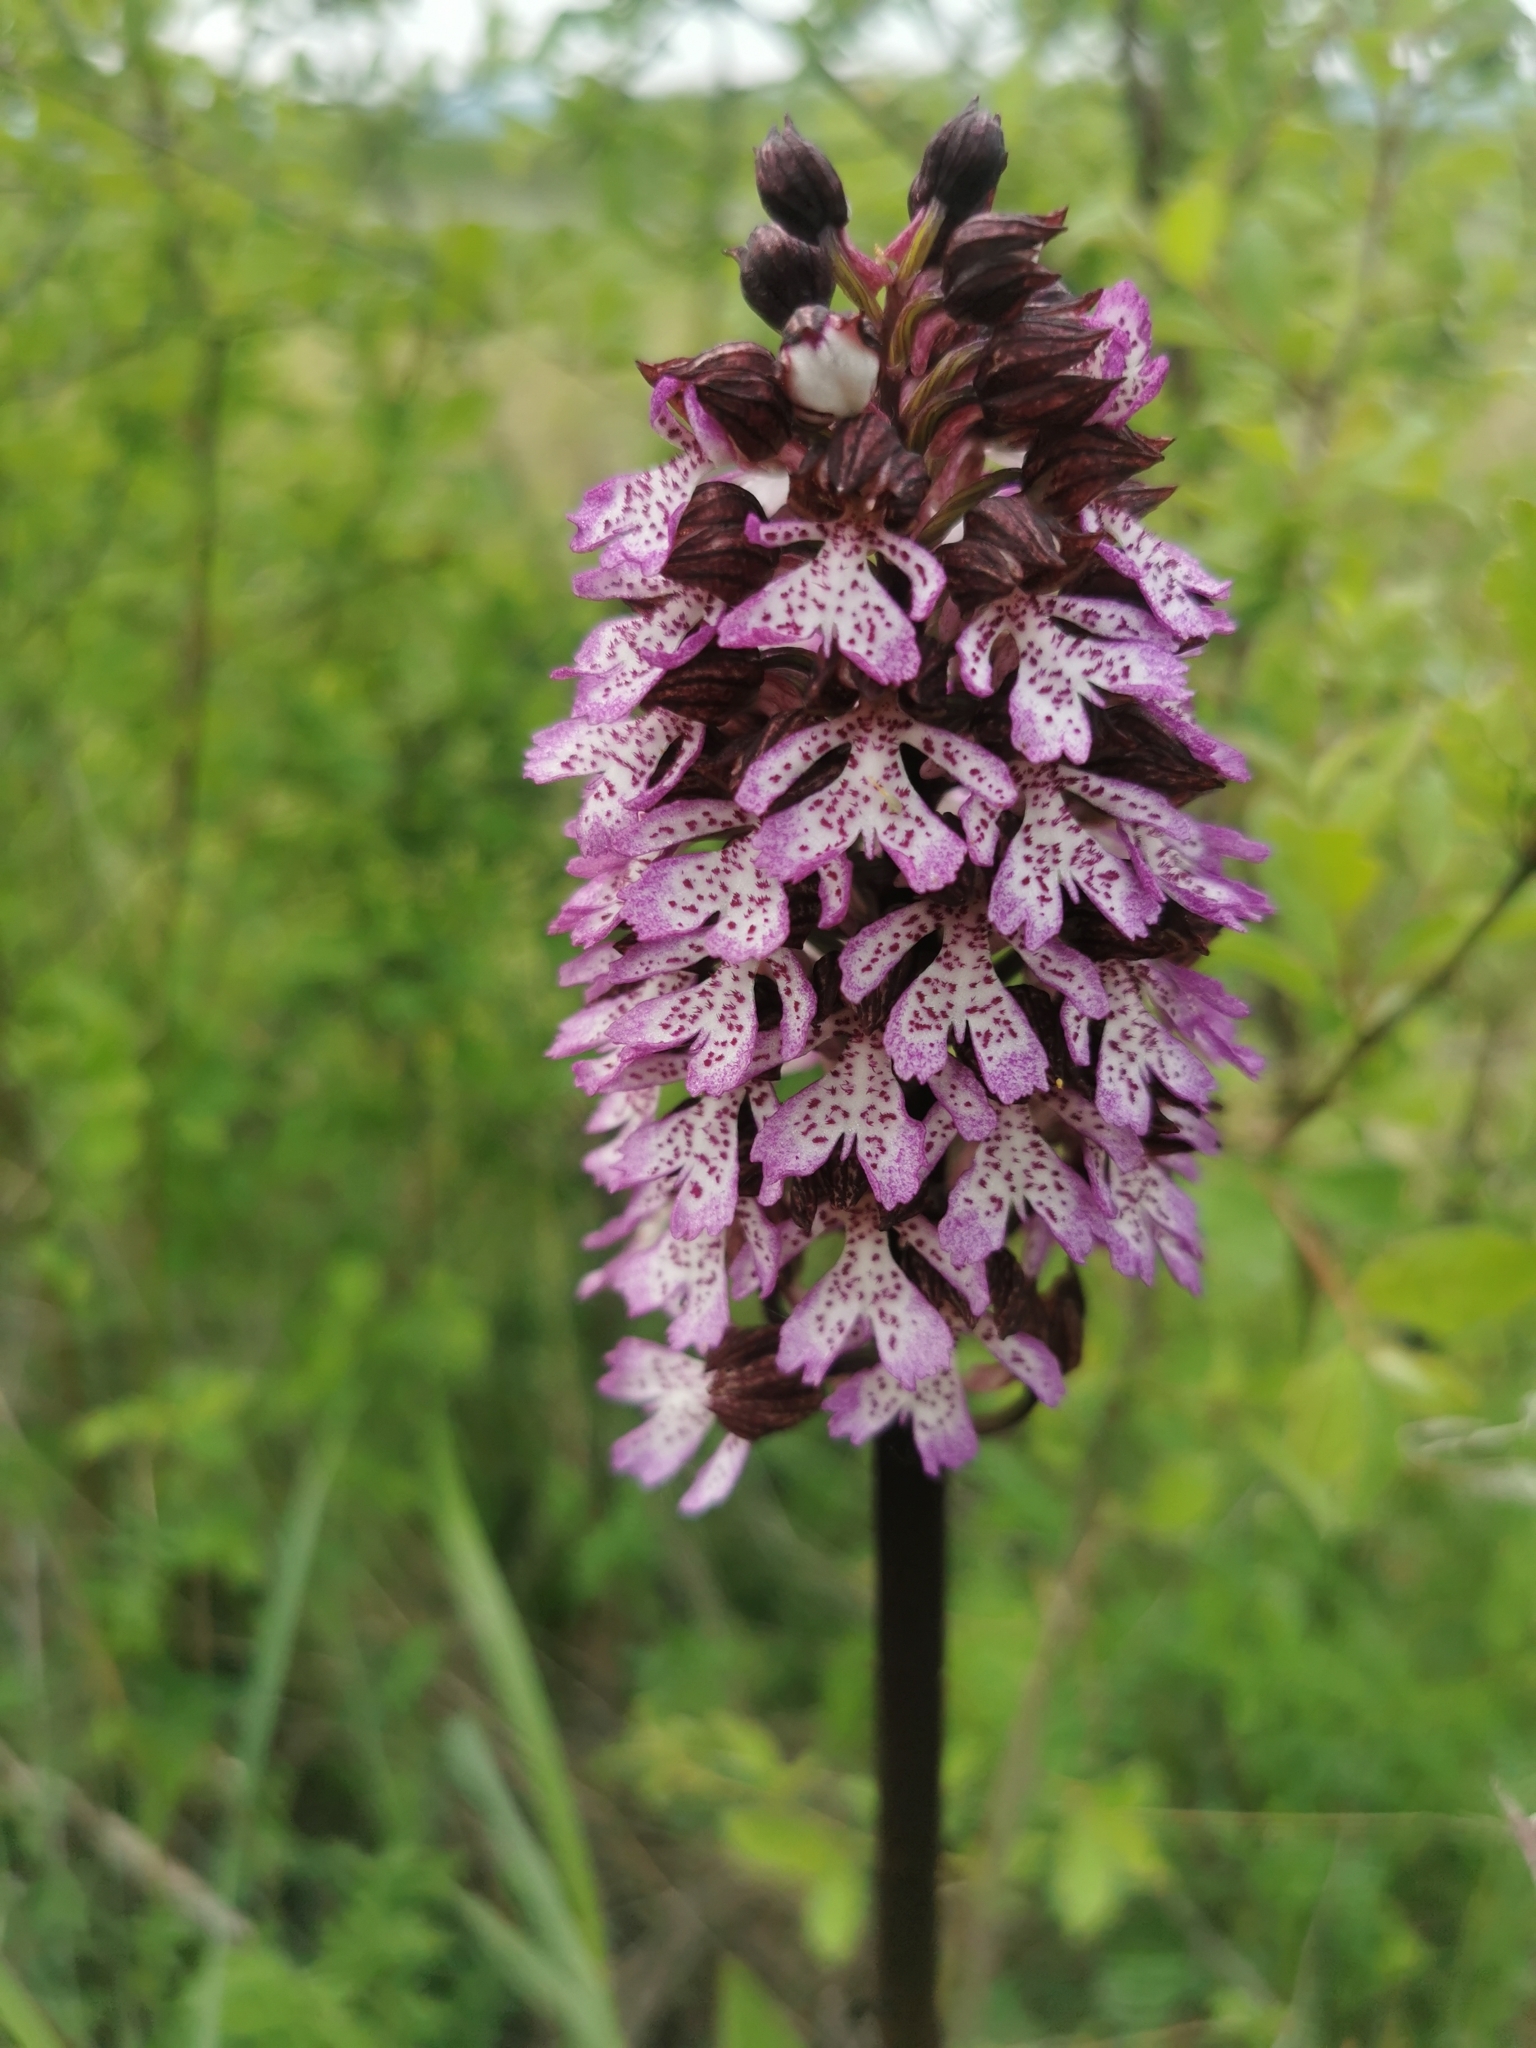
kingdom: Plantae
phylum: Tracheophyta
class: Liliopsida
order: Asparagales
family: Orchidaceae
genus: Orchis
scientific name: Orchis purpurea
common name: Lady orchid
